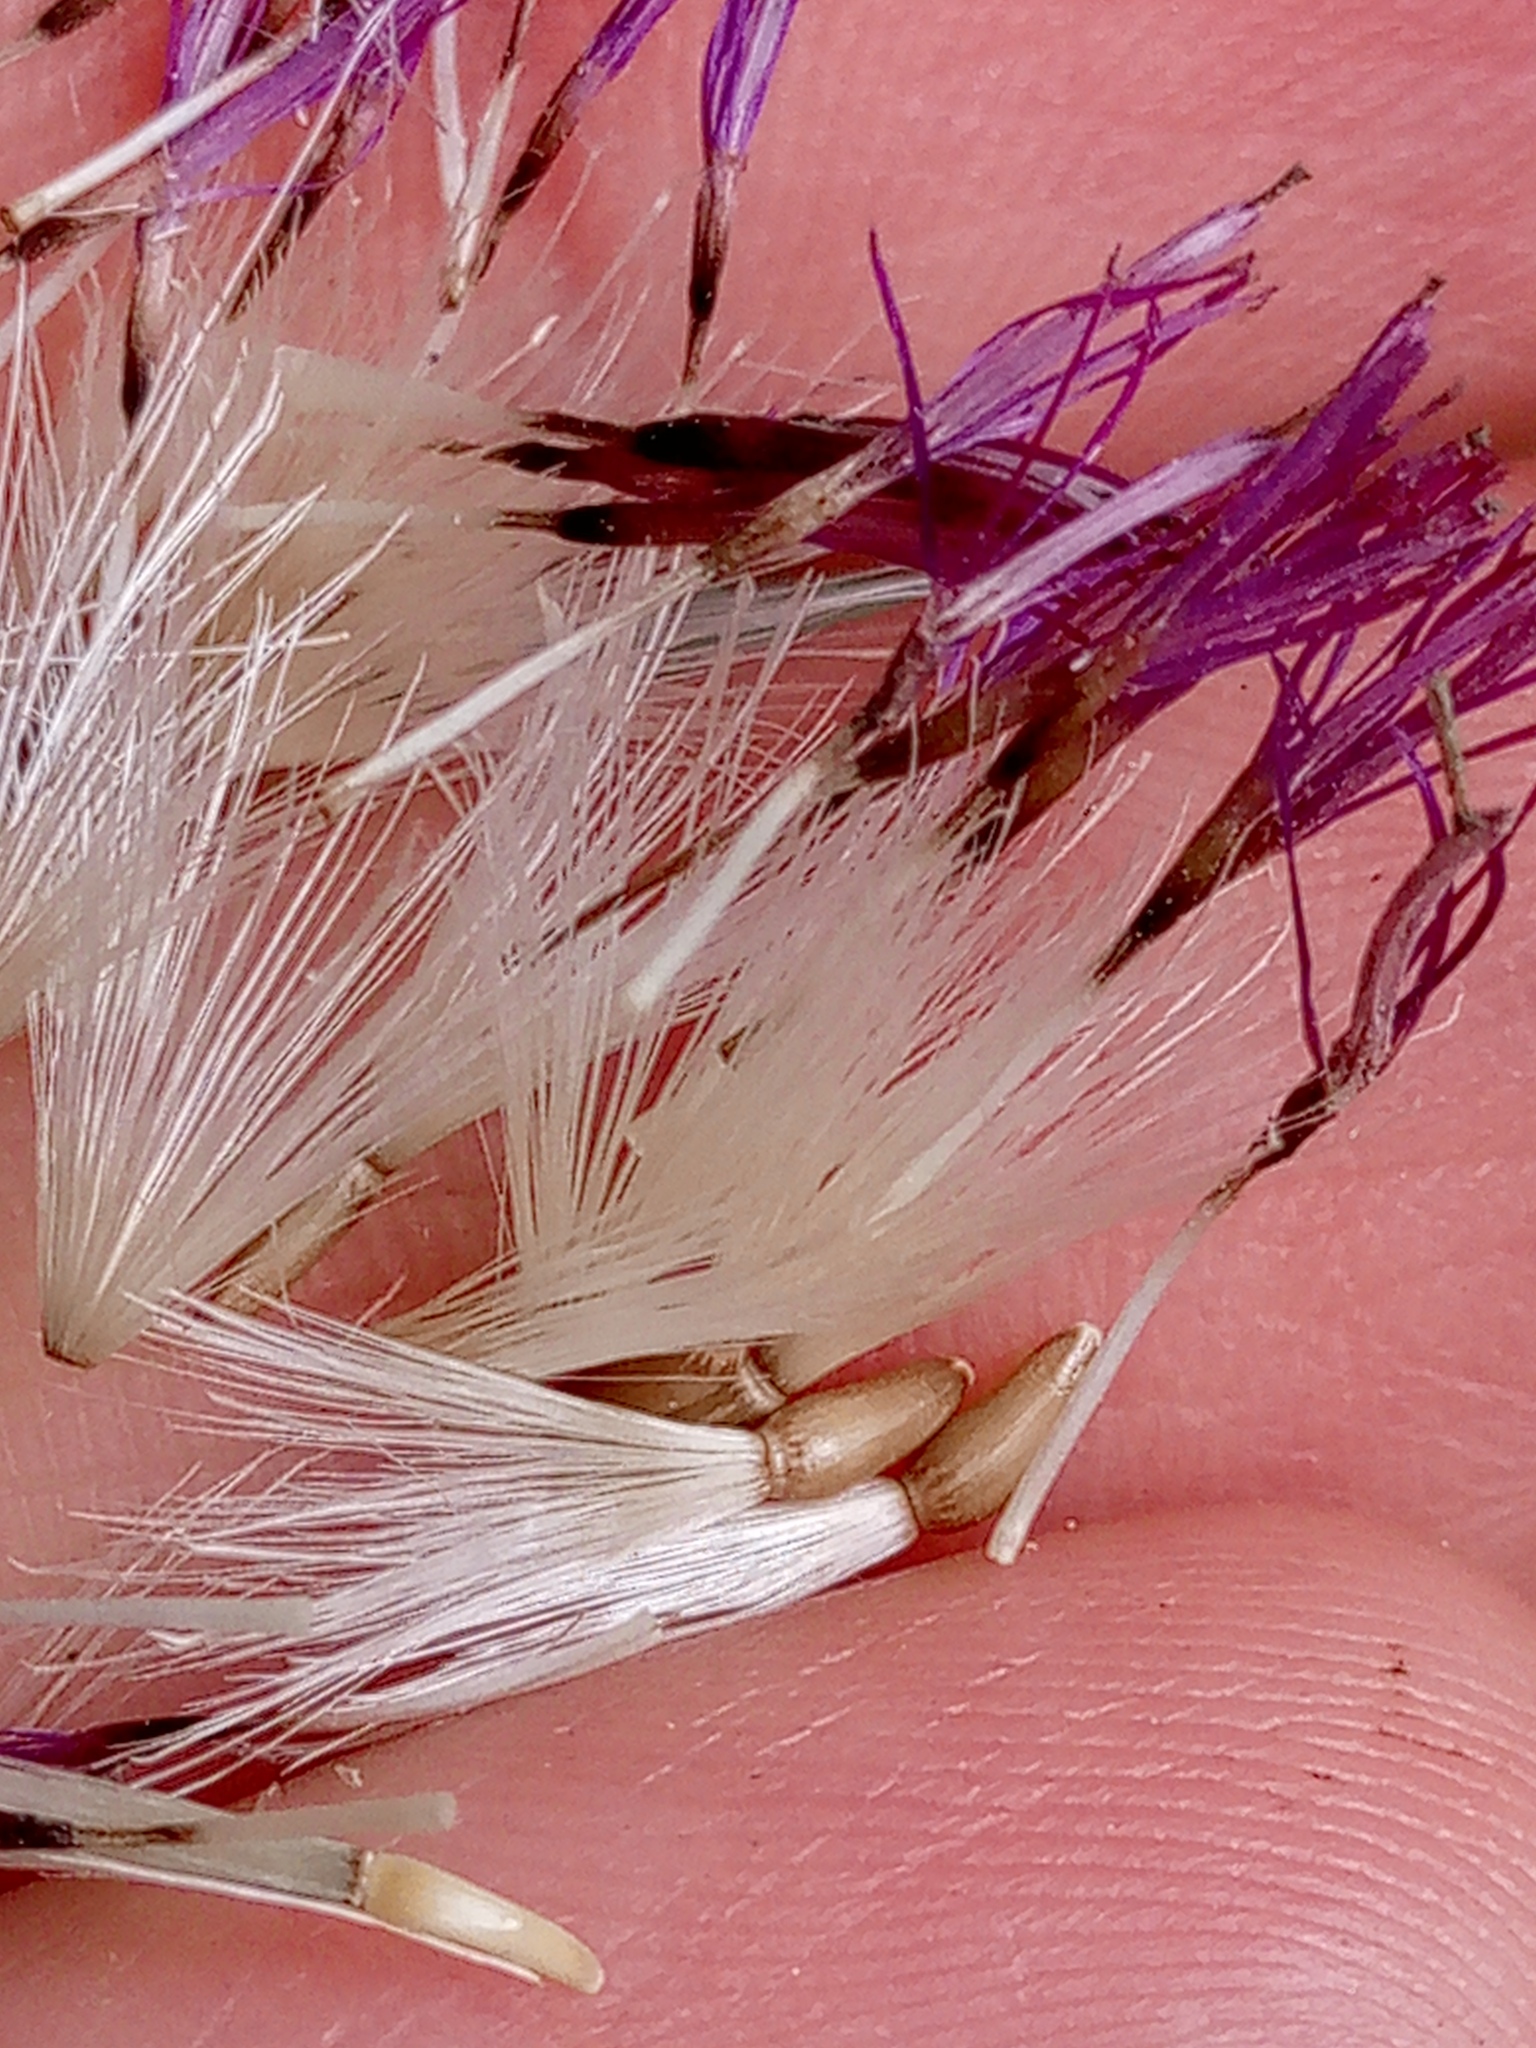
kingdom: Plantae
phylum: Tracheophyta
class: Magnoliopsida
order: Asterales
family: Asteraceae
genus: Carduus
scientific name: Carduus crispus
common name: Welted thistle
